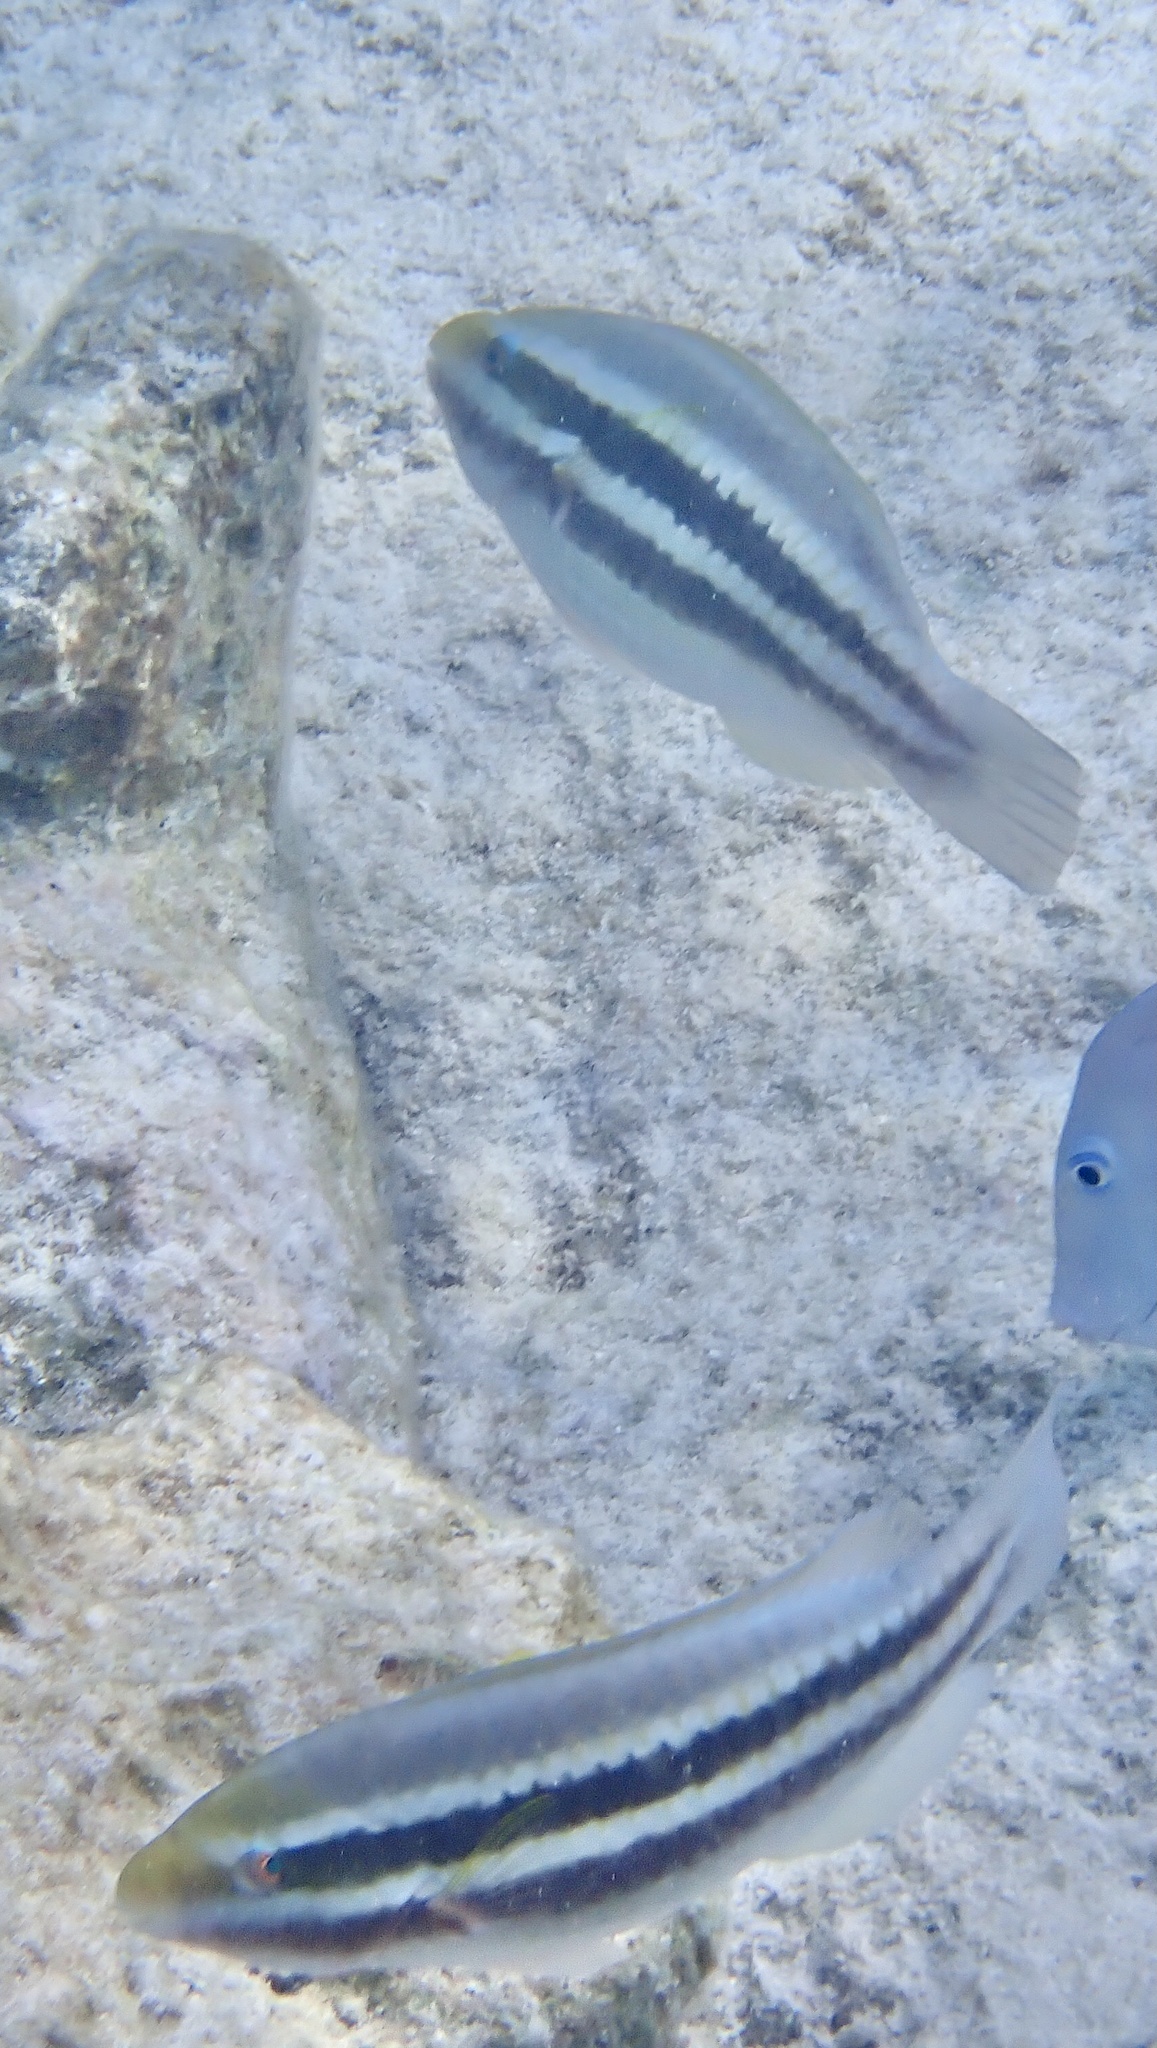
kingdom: Animalia
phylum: Chordata
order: Perciformes
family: Scaridae
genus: Scarus
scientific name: Scarus iseri
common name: Striped parrotfish
